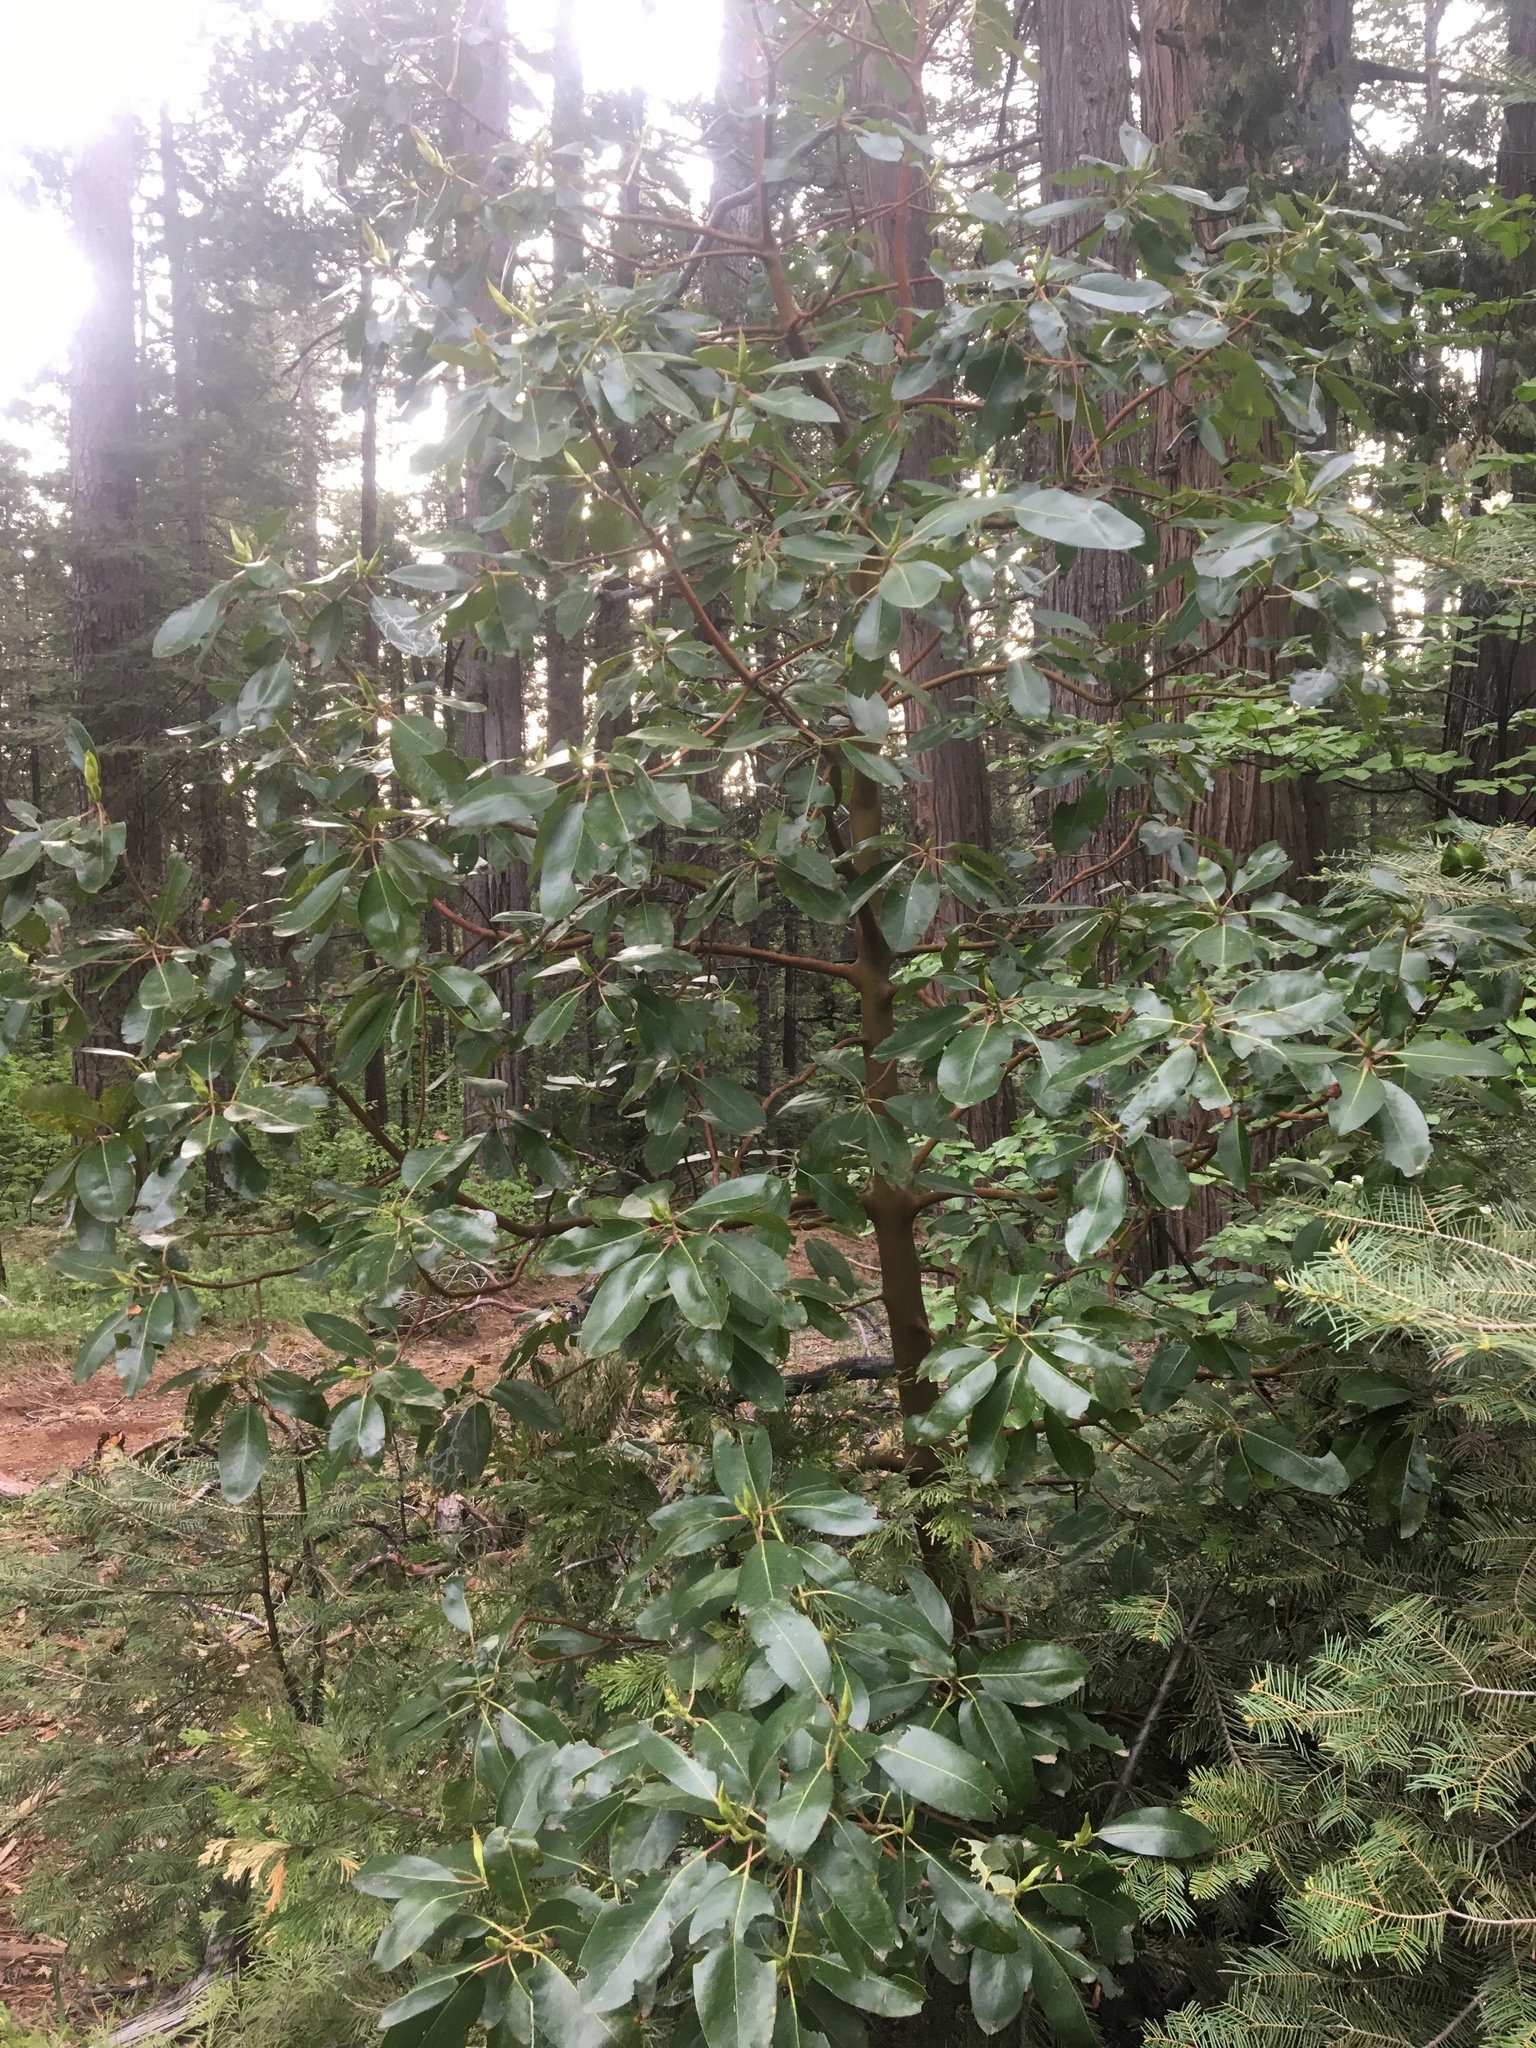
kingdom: Plantae
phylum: Tracheophyta
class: Magnoliopsida
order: Ericales
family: Ericaceae
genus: Arbutus
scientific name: Arbutus menziesii
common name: Pacific madrone
